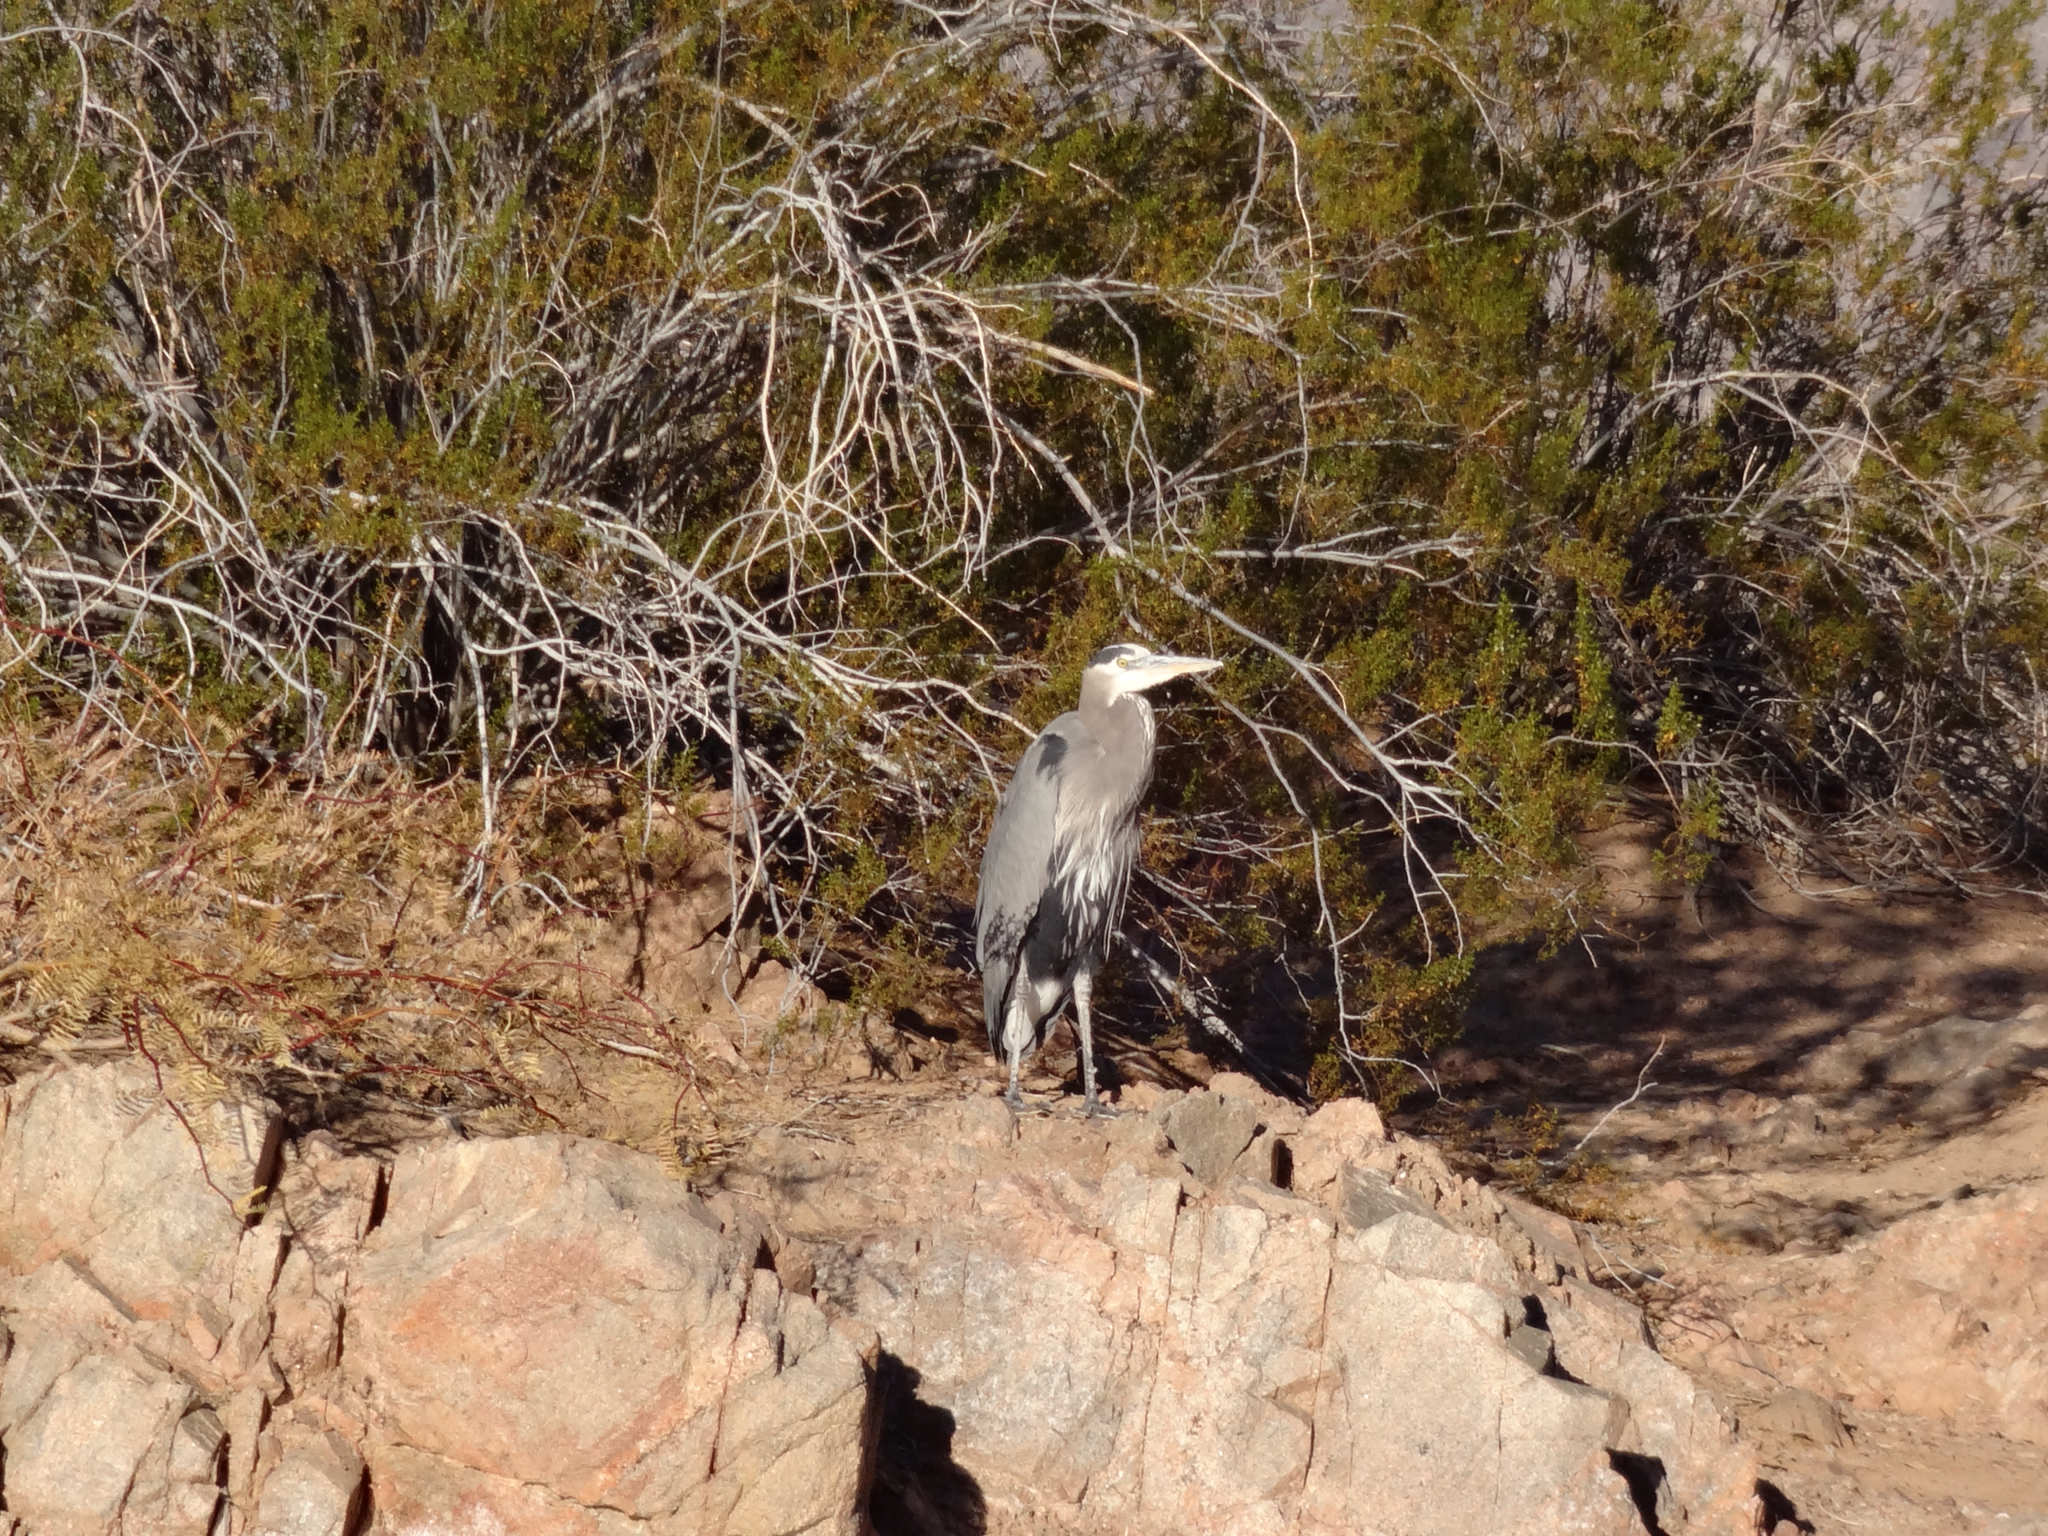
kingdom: Animalia
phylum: Chordata
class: Aves
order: Pelecaniformes
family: Ardeidae
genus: Ardea
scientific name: Ardea herodias
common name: Great blue heron
